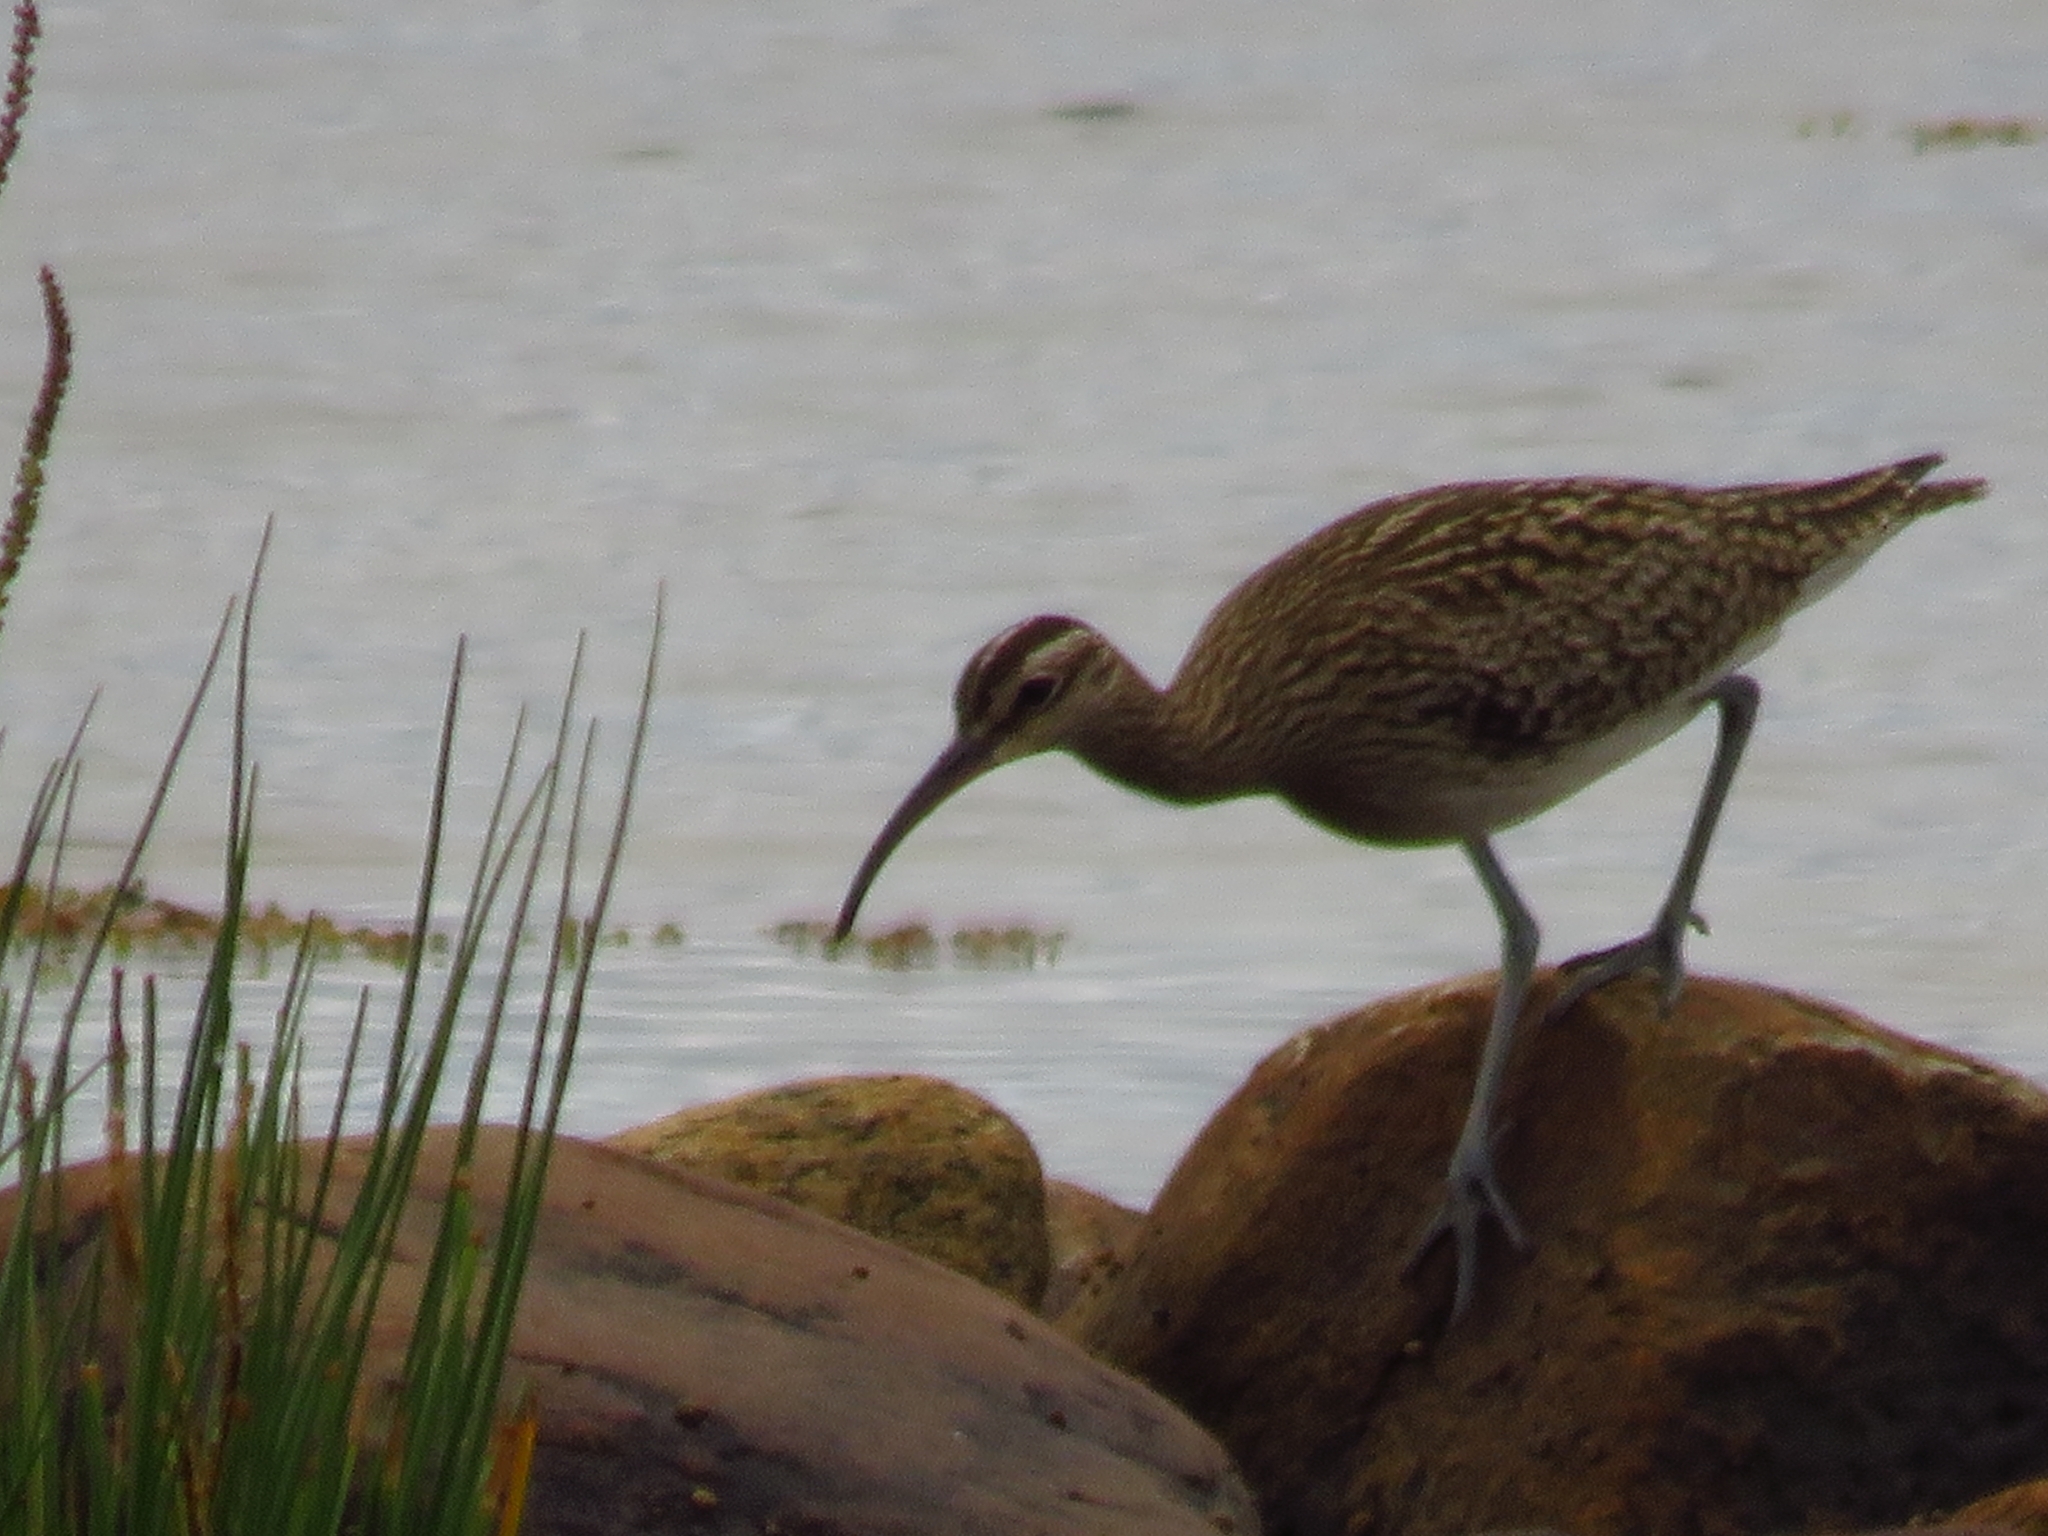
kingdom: Animalia
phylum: Chordata
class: Aves
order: Charadriiformes
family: Scolopacidae
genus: Numenius
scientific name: Numenius phaeopus
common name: Whimbrel
